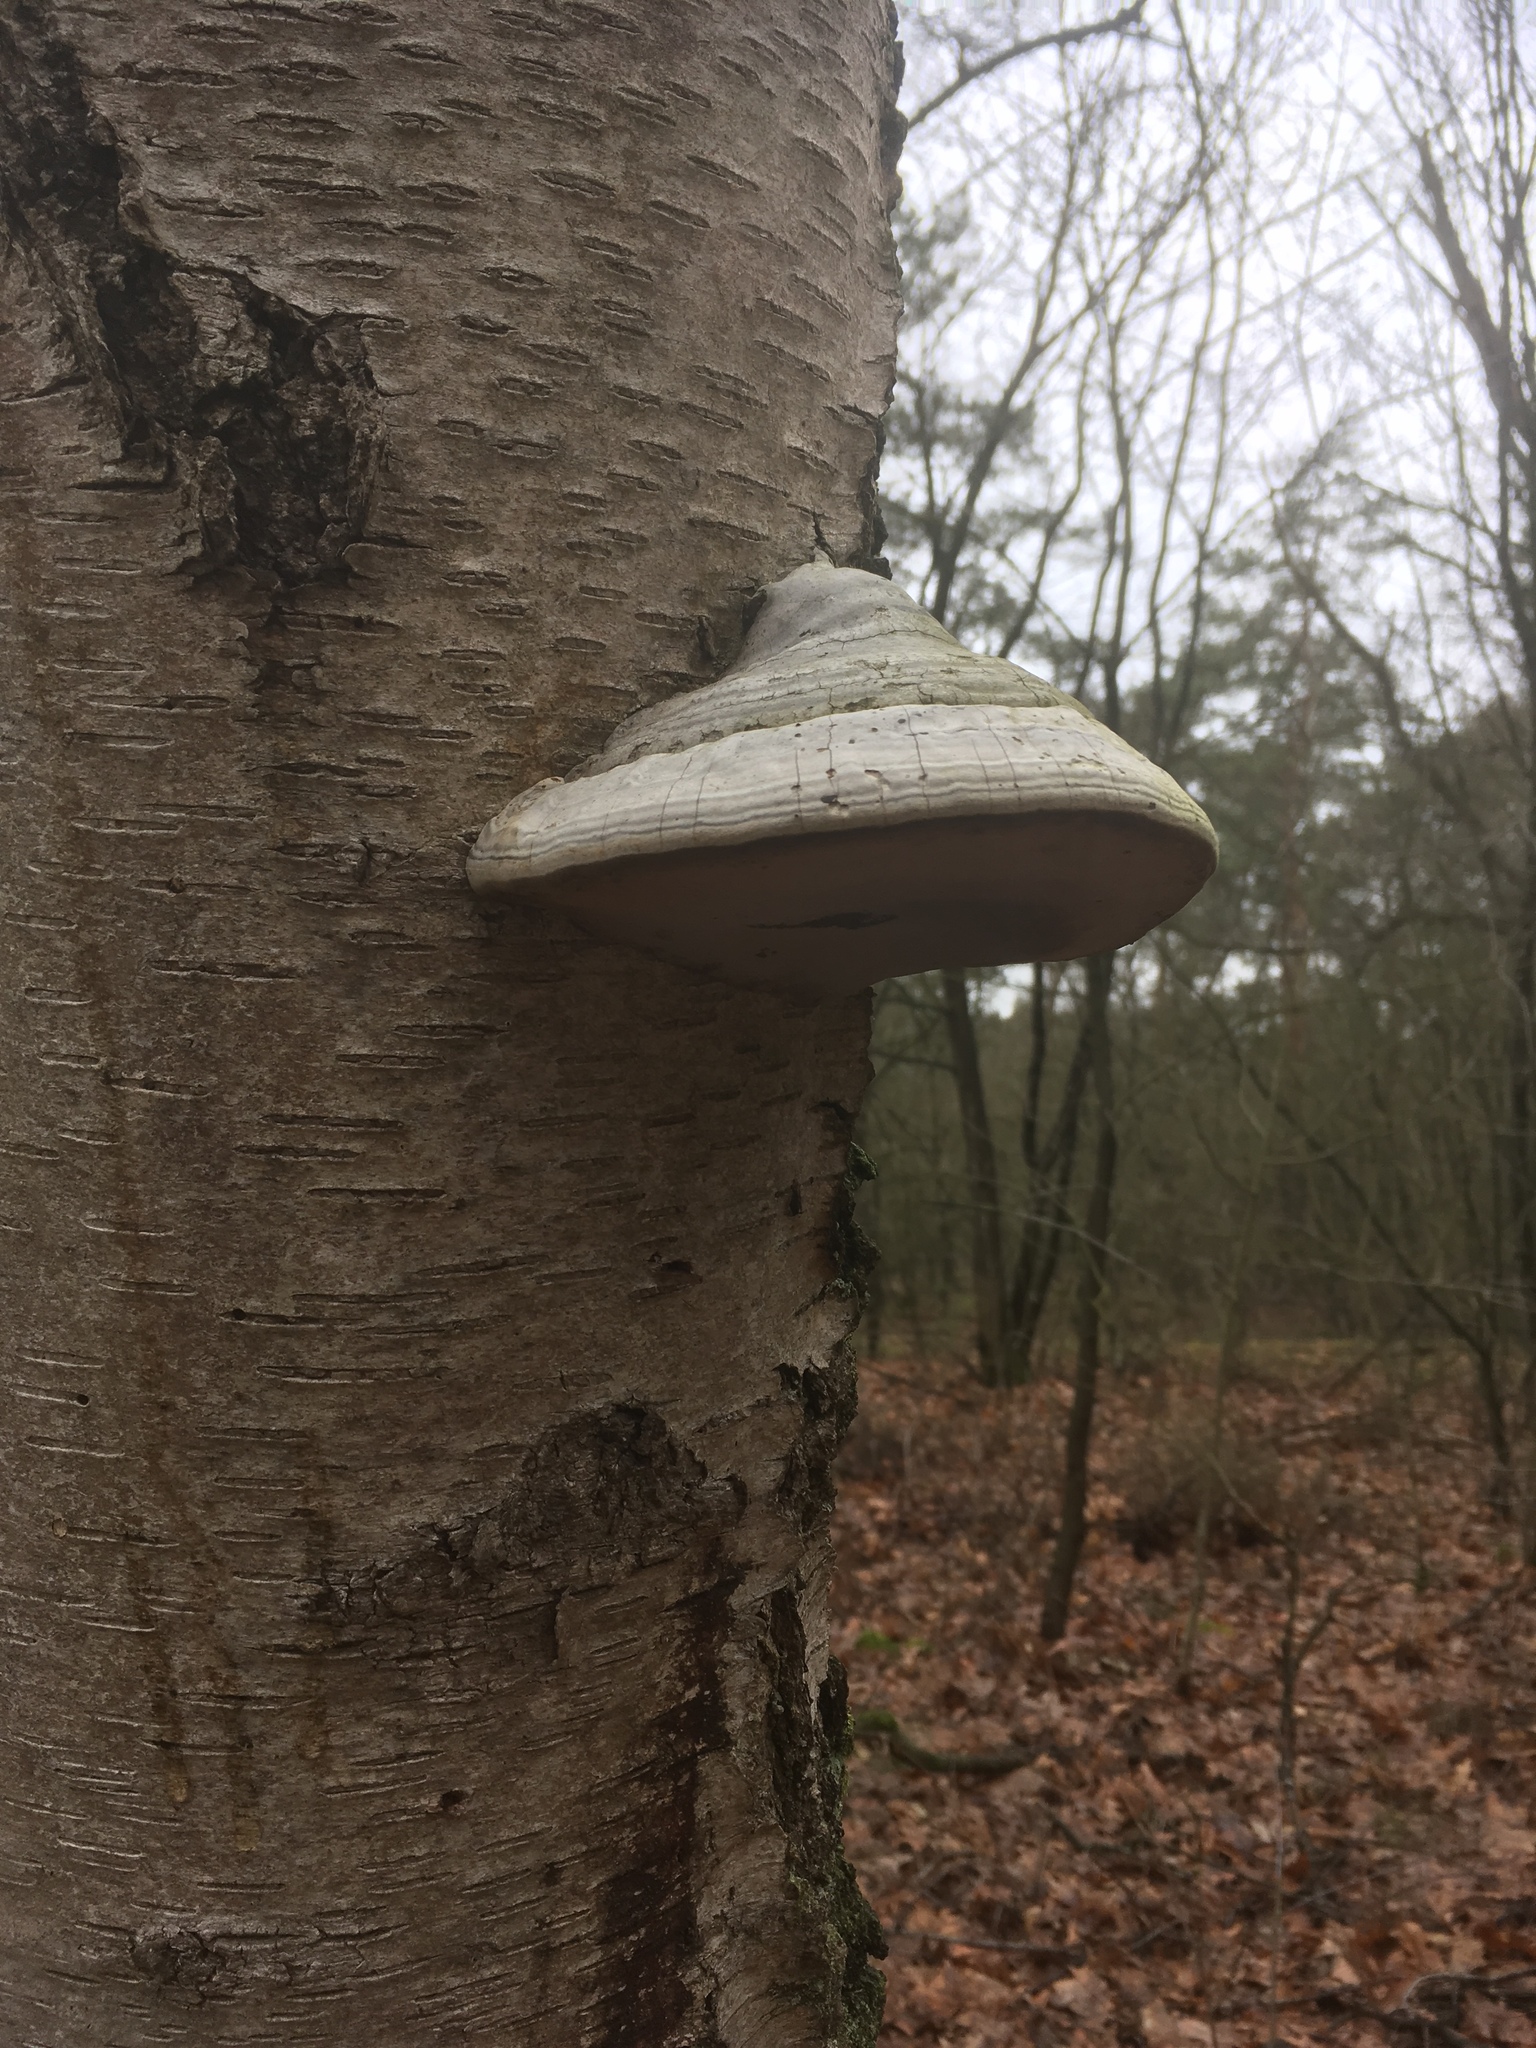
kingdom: Fungi
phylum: Basidiomycota
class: Agaricomycetes
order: Polyporales
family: Polyporaceae
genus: Fomes
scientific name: Fomes fomentarius
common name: Hoof fungus
